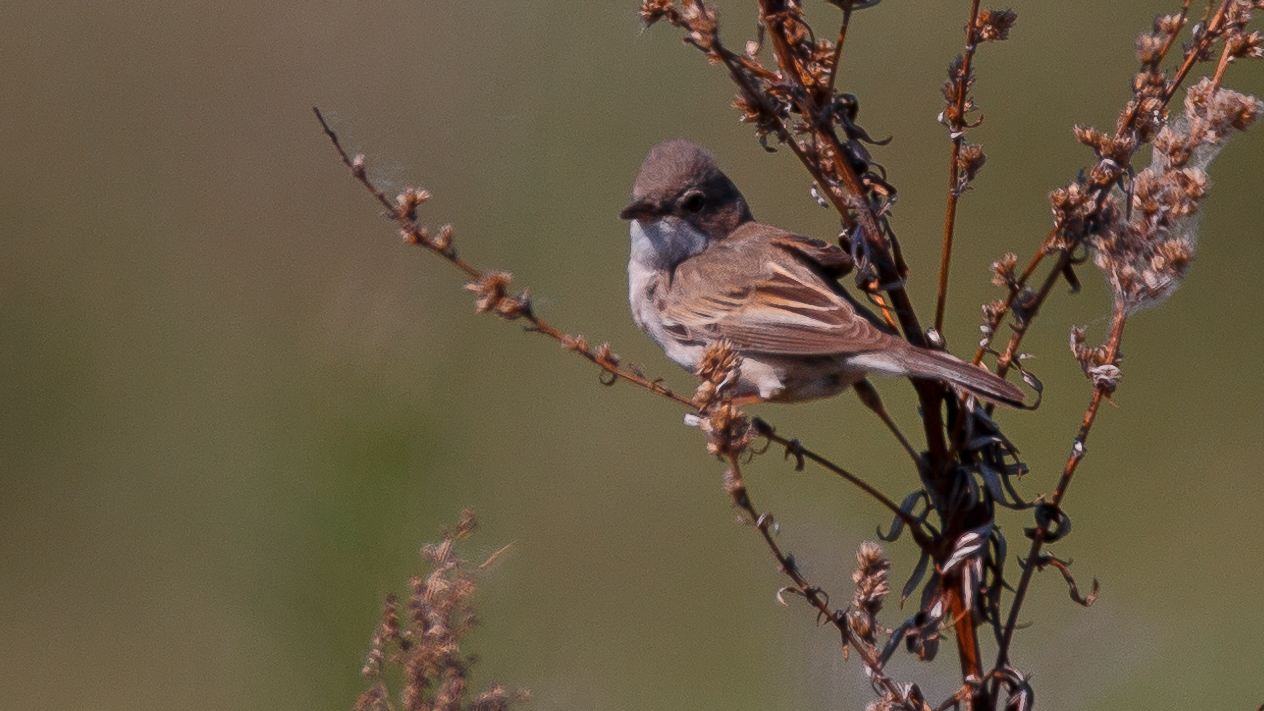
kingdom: Animalia
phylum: Chordata
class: Aves
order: Passeriformes
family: Sylviidae
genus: Sylvia
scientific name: Sylvia communis
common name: Common whitethroat
